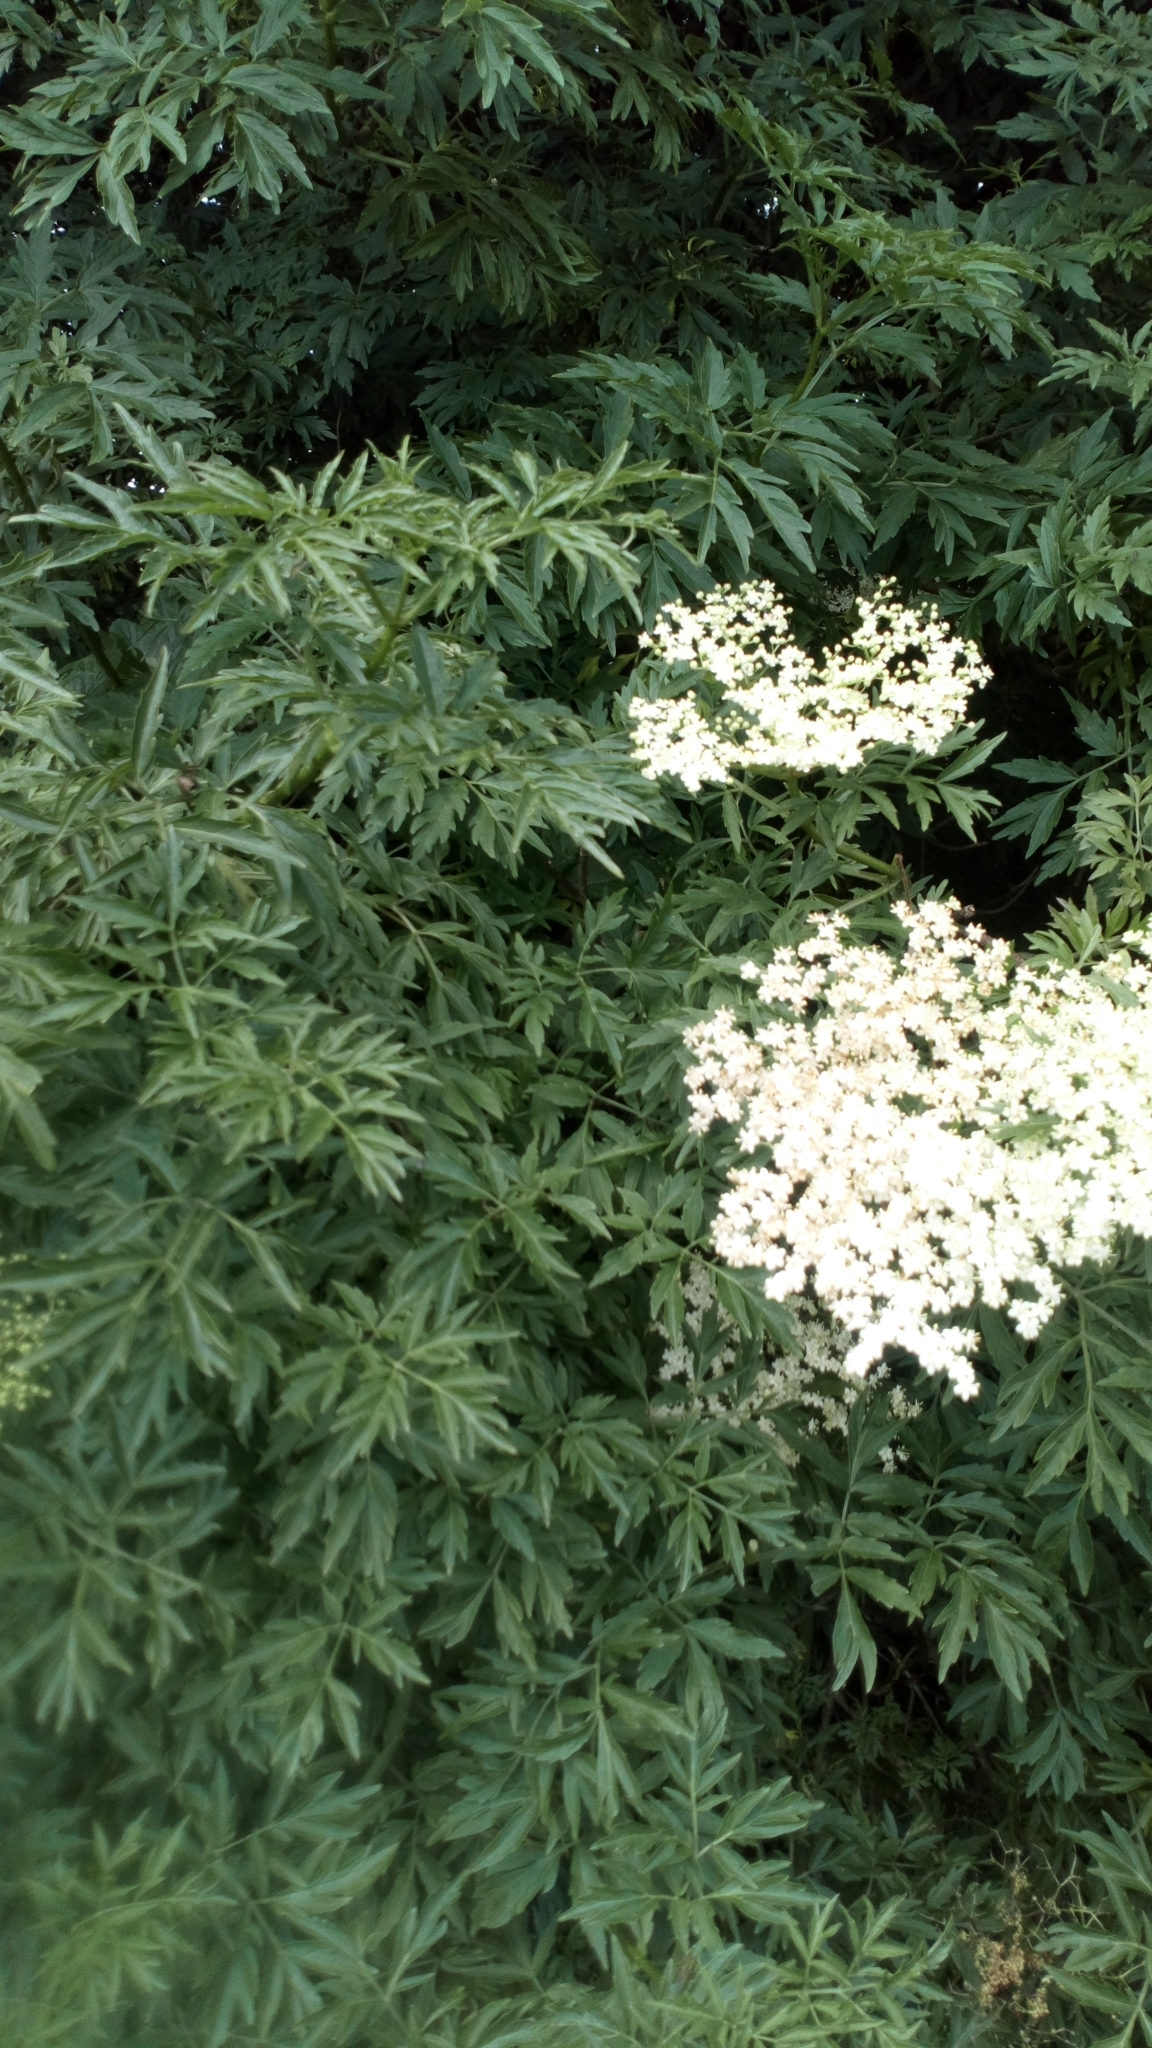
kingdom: Plantae
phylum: Tracheophyta
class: Magnoliopsida
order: Dipsacales
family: Viburnaceae
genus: Sambucus
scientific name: Sambucus nigra
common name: Elder
